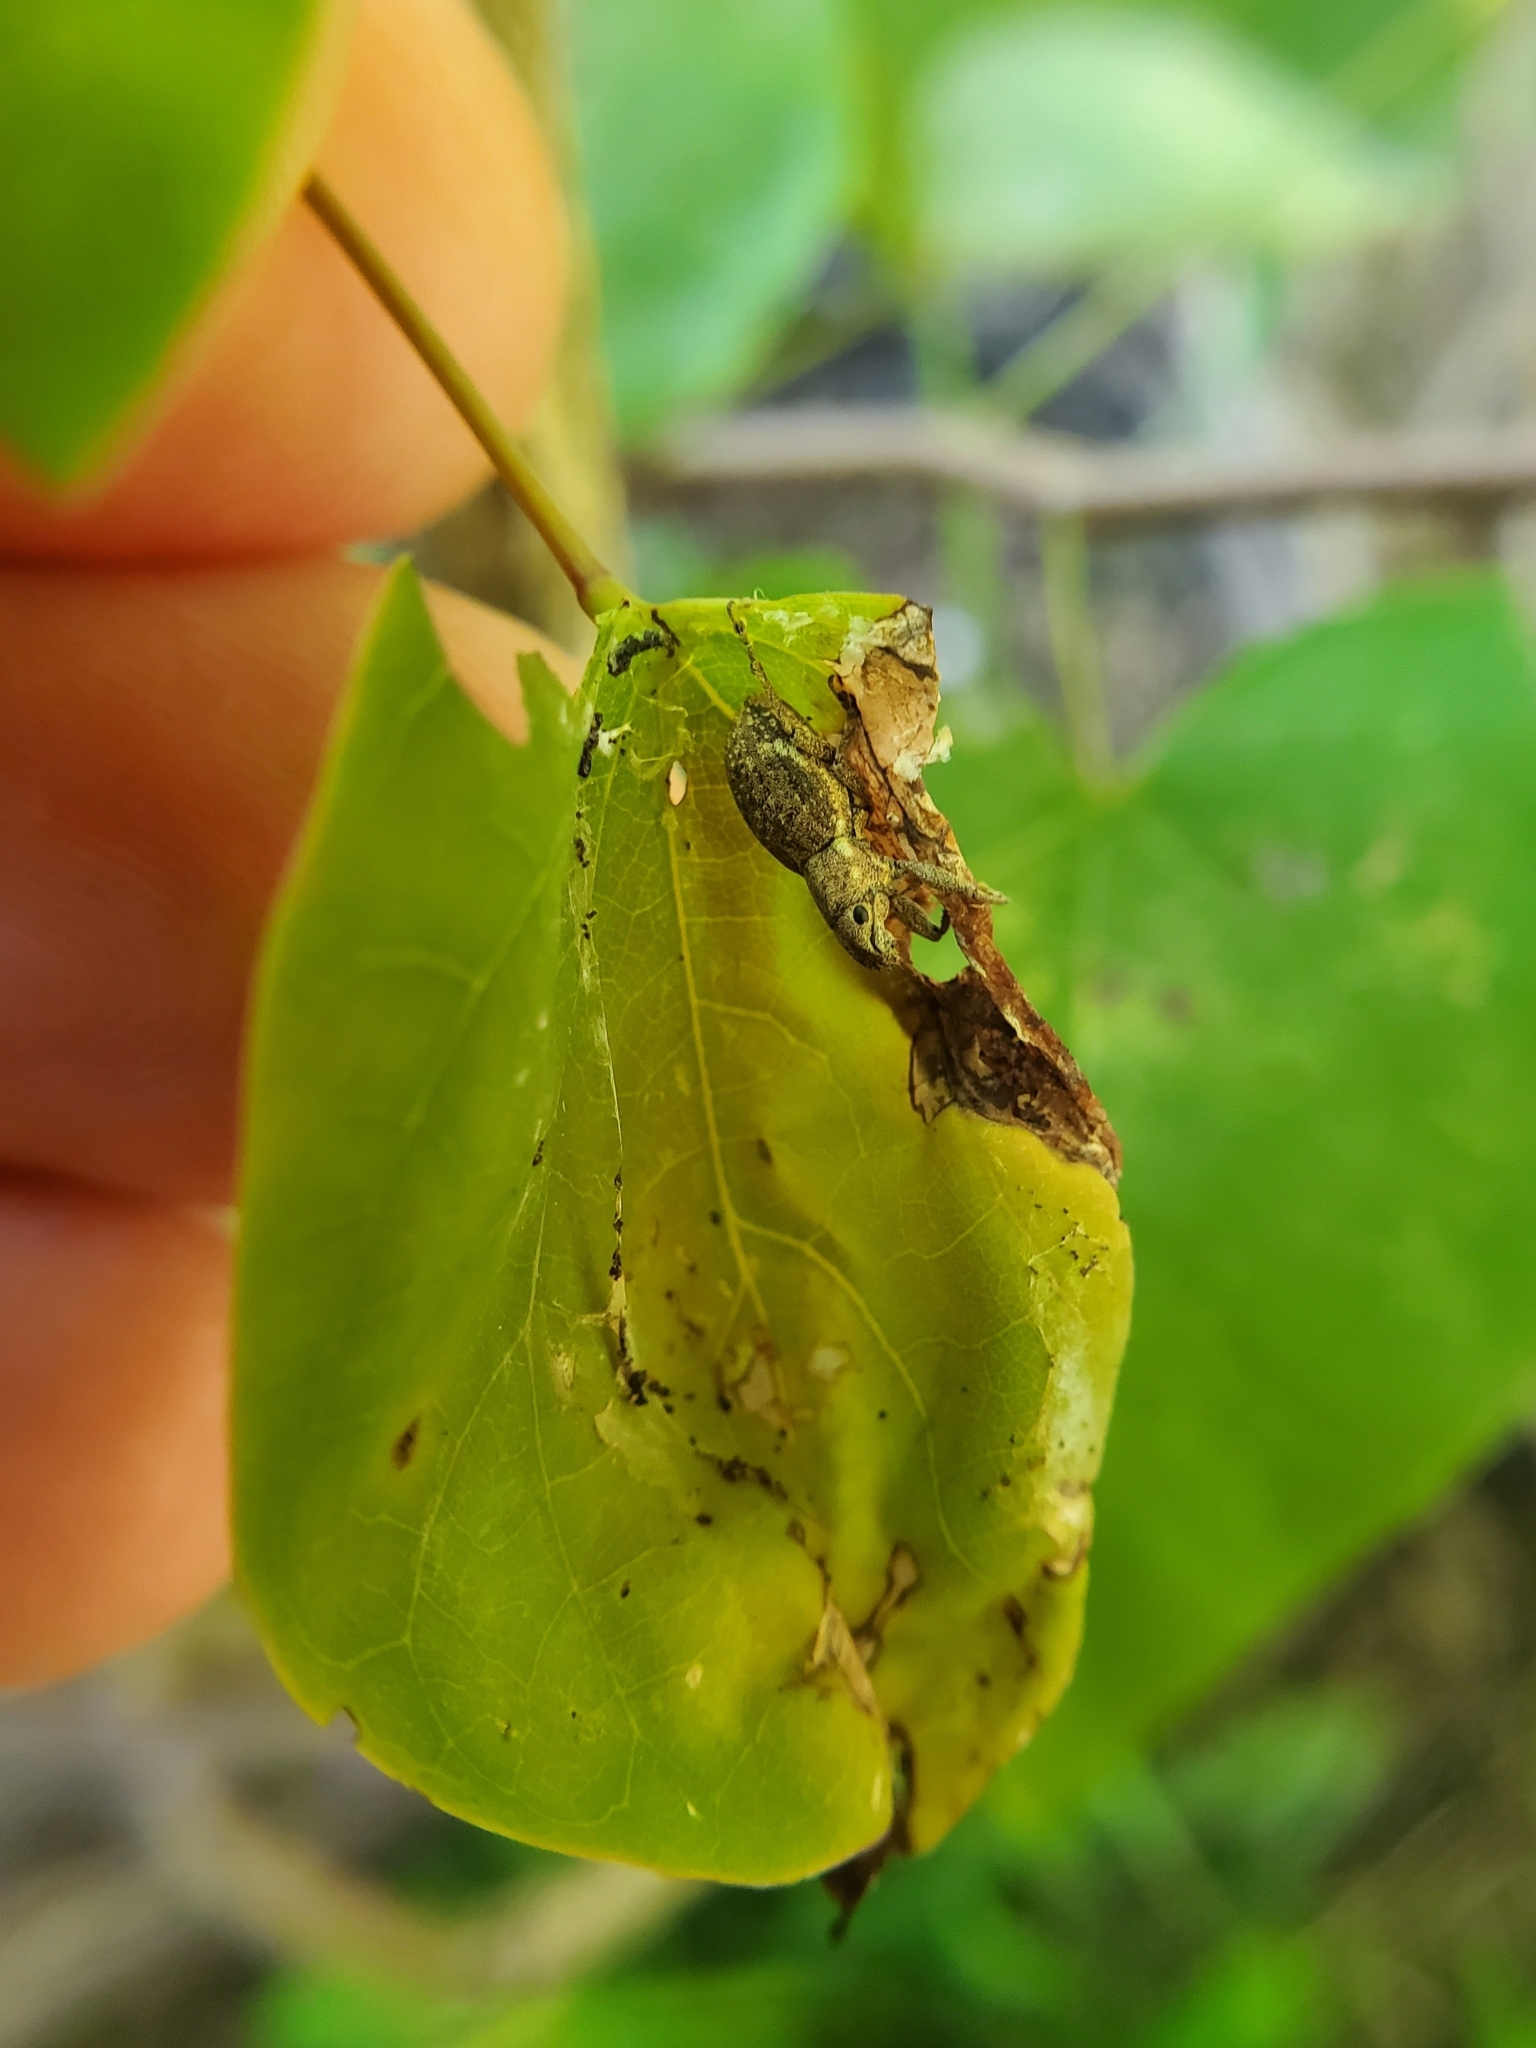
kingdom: Animalia
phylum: Arthropoda
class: Insecta
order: Coleoptera
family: Curculionidae
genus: Naupactus
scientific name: Naupactus cervinus
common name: Fuller rose beetle
